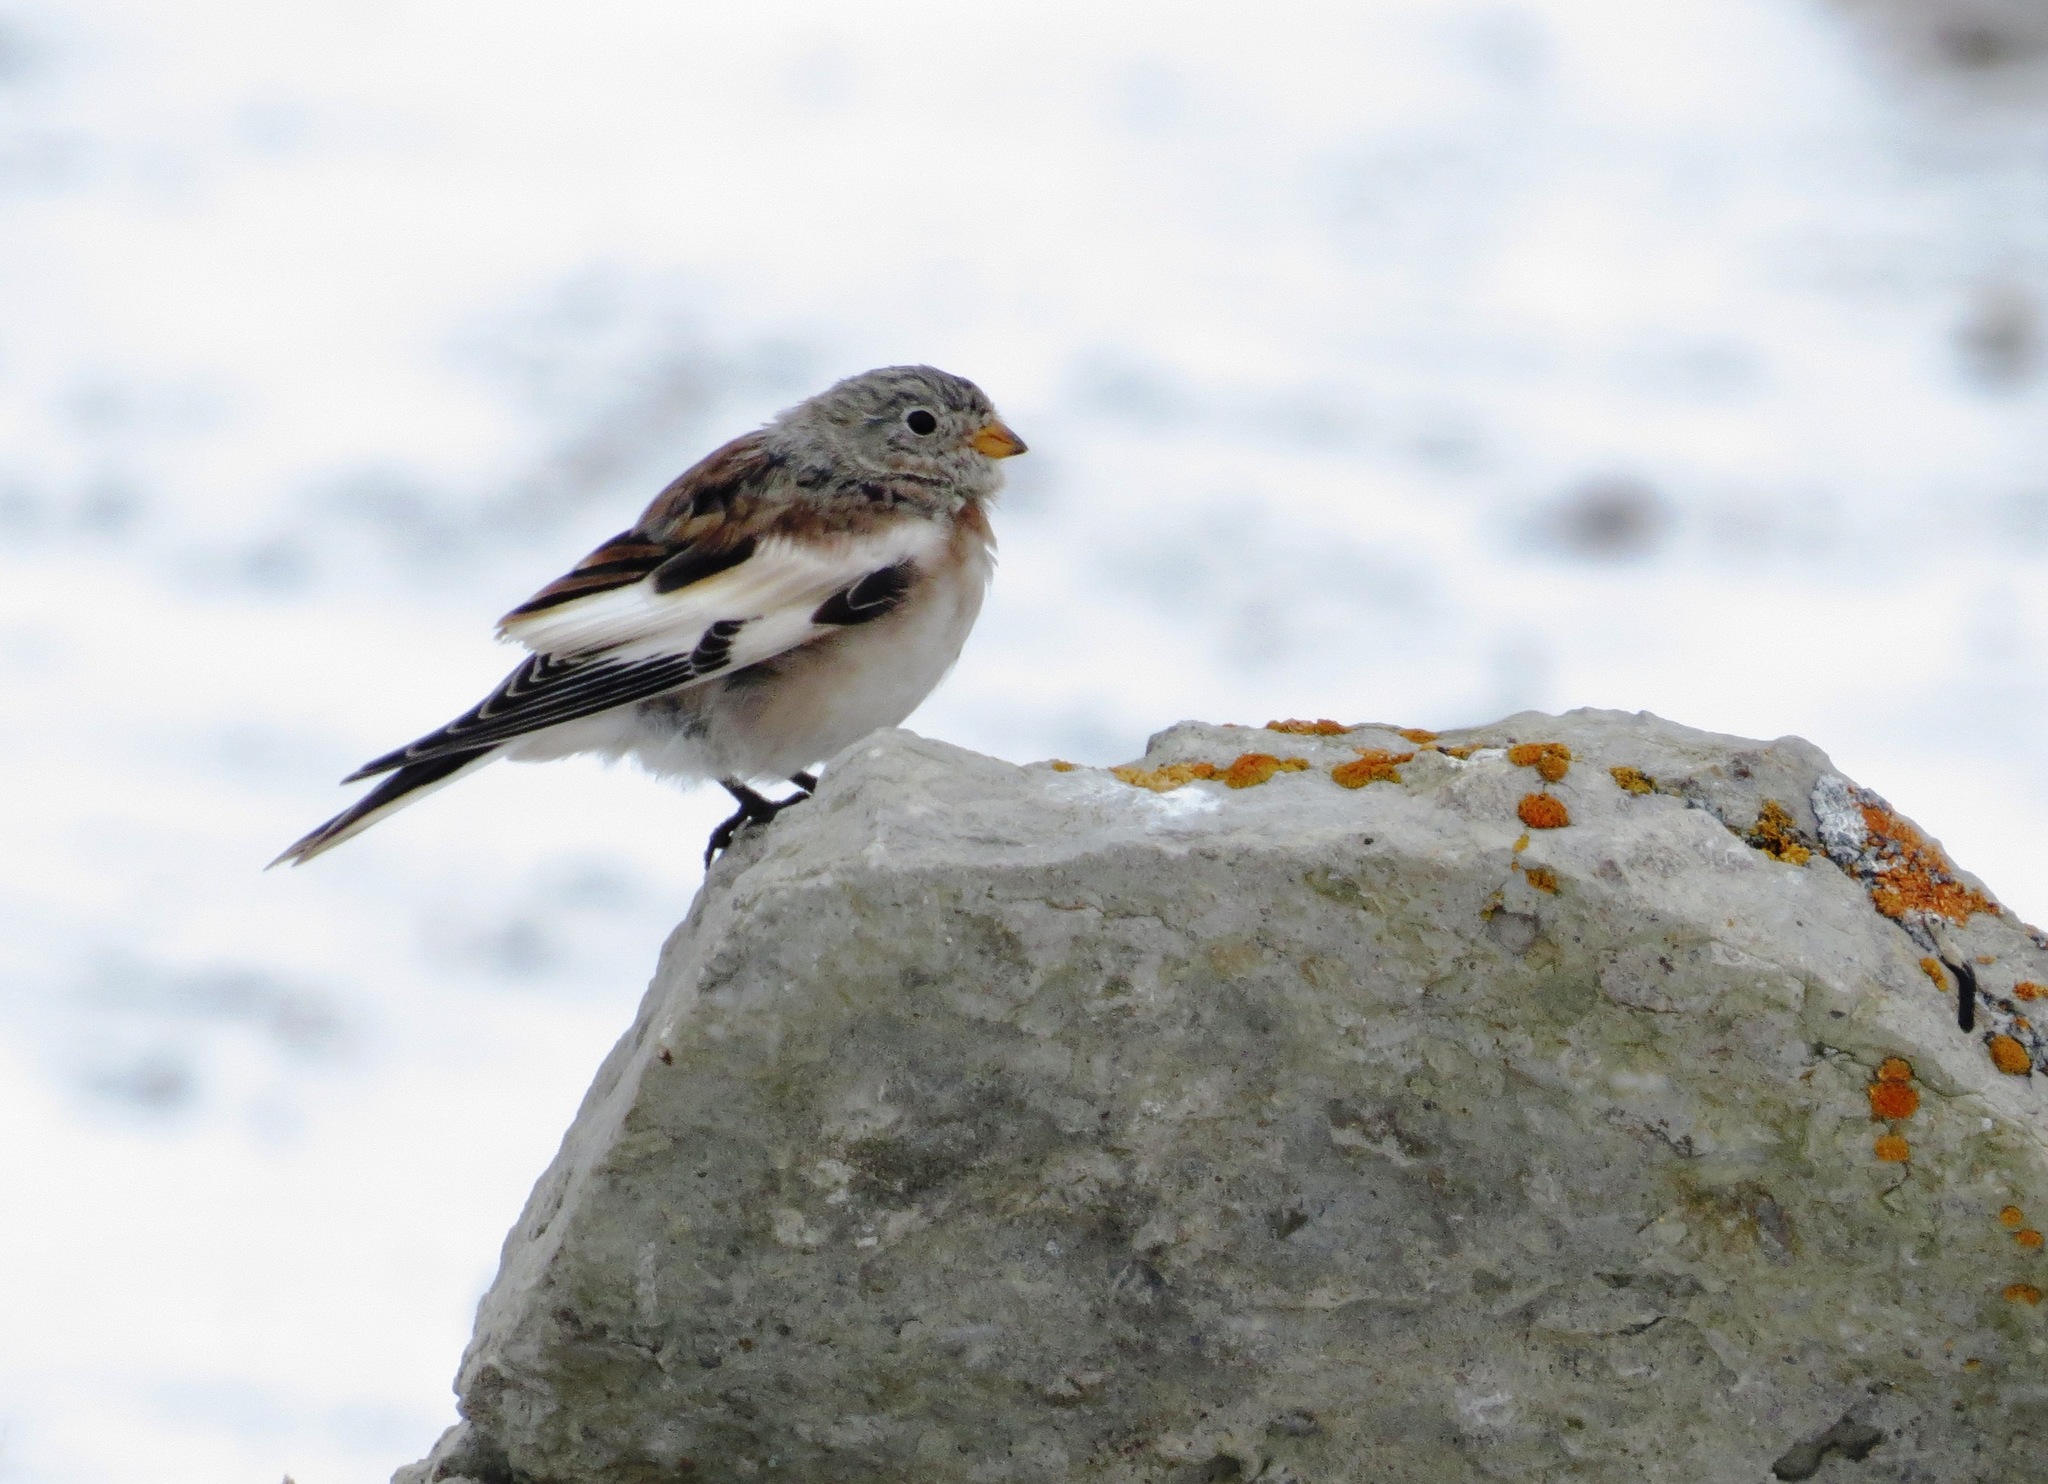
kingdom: Animalia
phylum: Chordata
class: Aves
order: Passeriformes
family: Calcariidae
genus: Plectrophenax
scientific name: Plectrophenax nivalis
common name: Snow bunting
